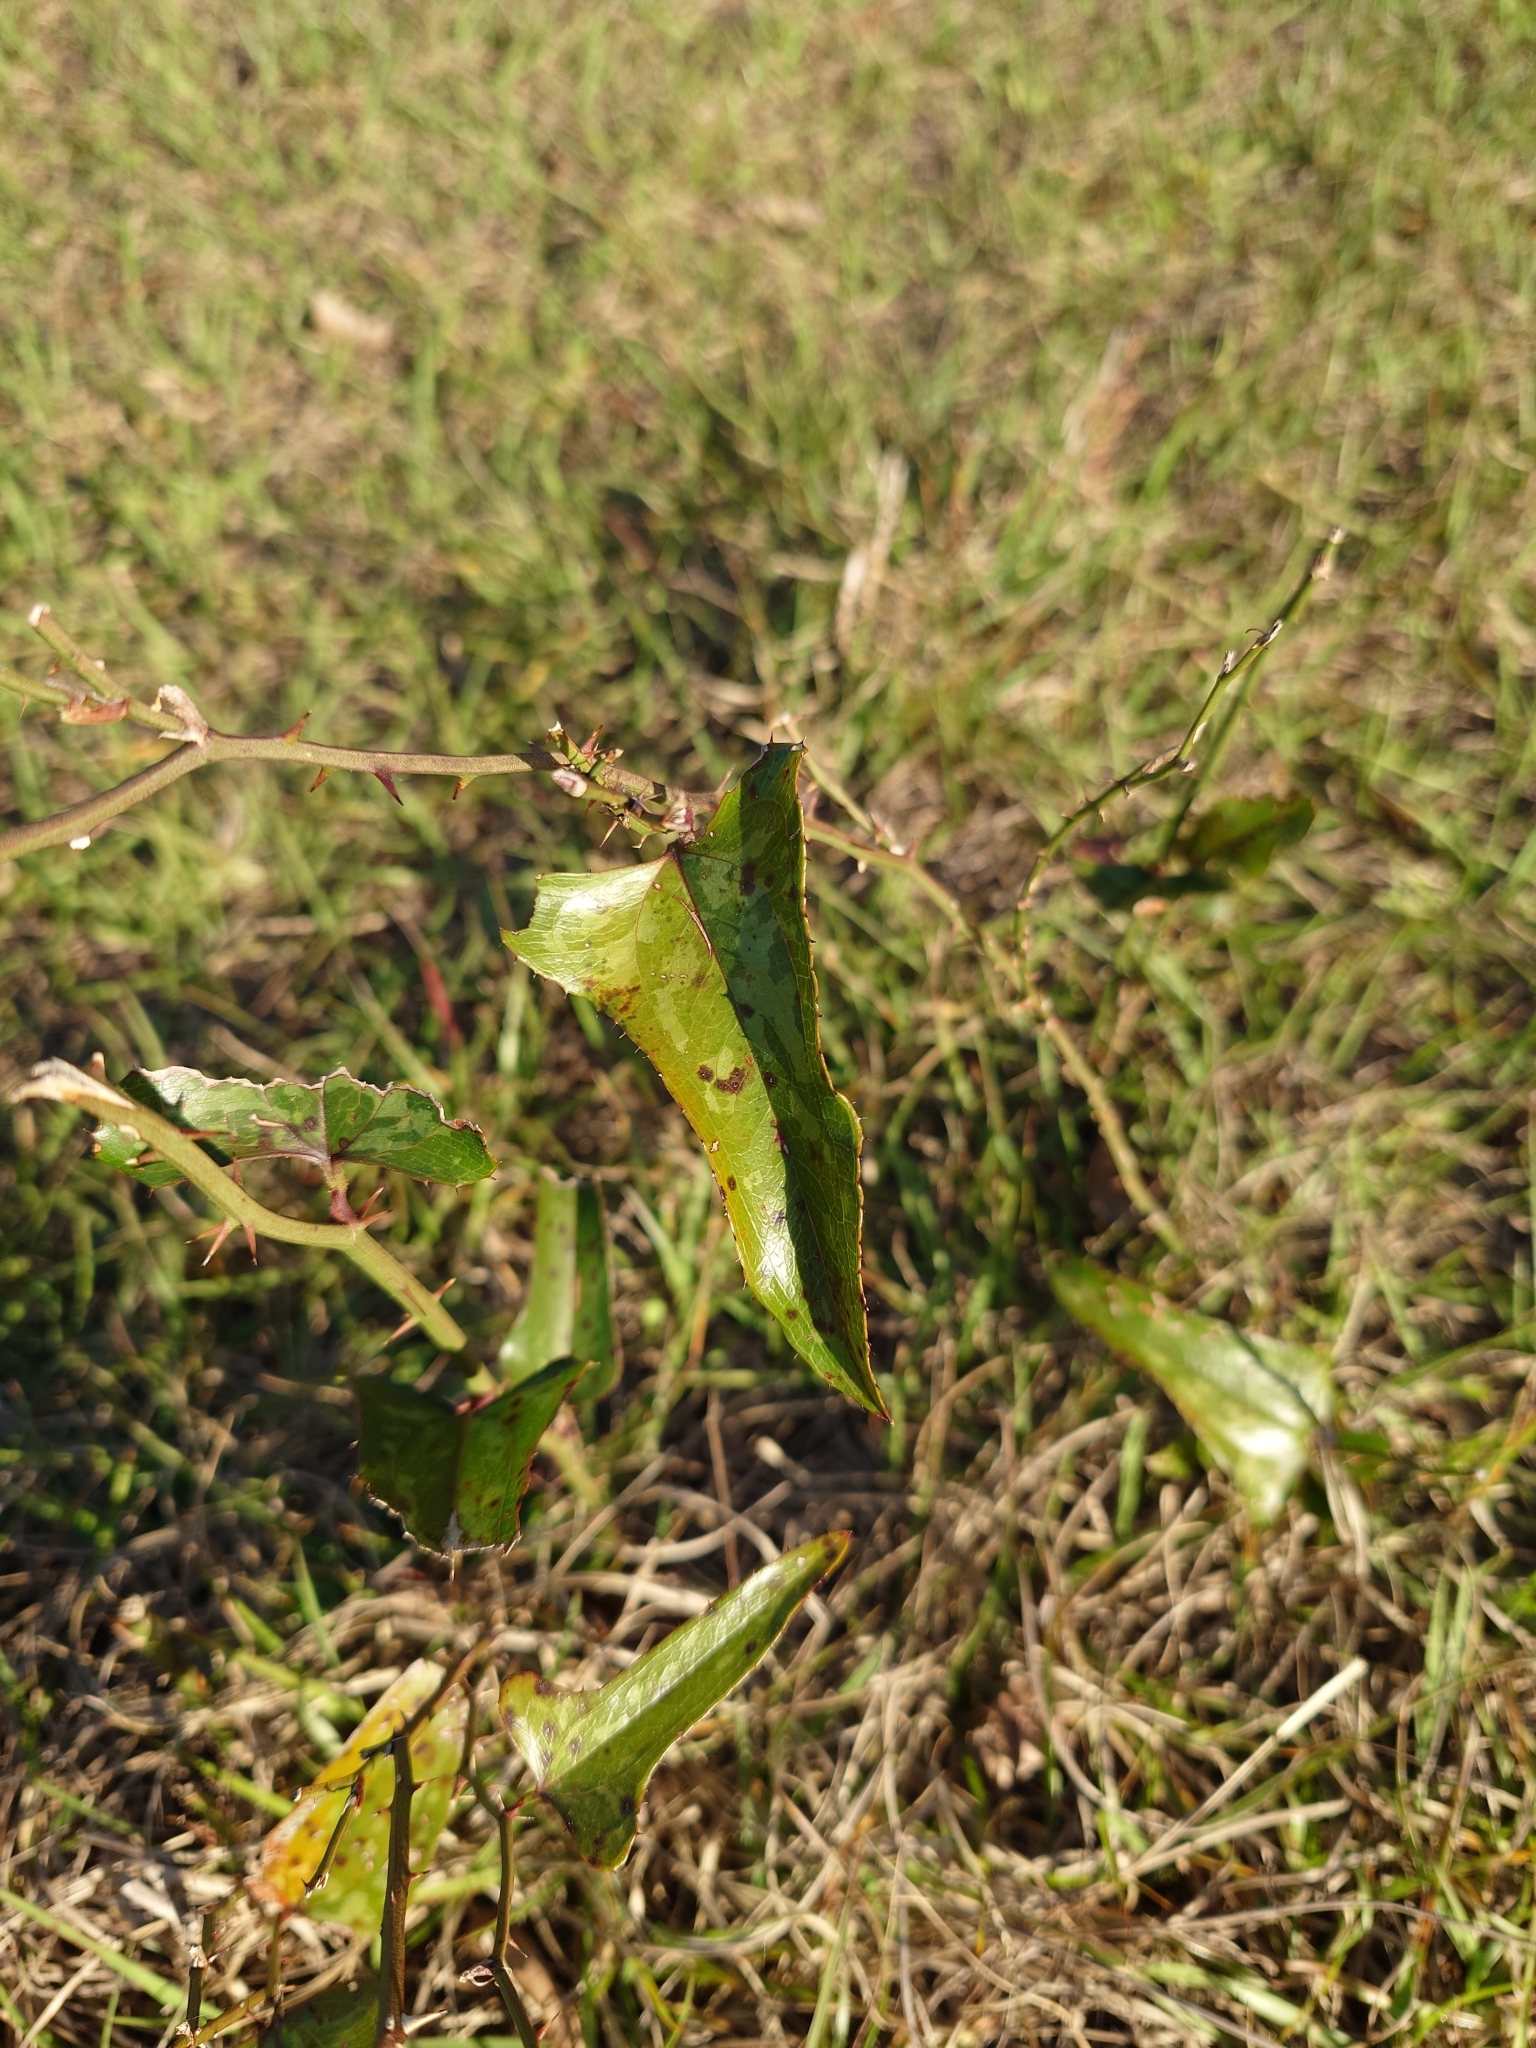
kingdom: Plantae
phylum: Tracheophyta
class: Liliopsida
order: Liliales
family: Smilacaceae
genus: Smilax
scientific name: Smilax bona-nox
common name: Catbrier
